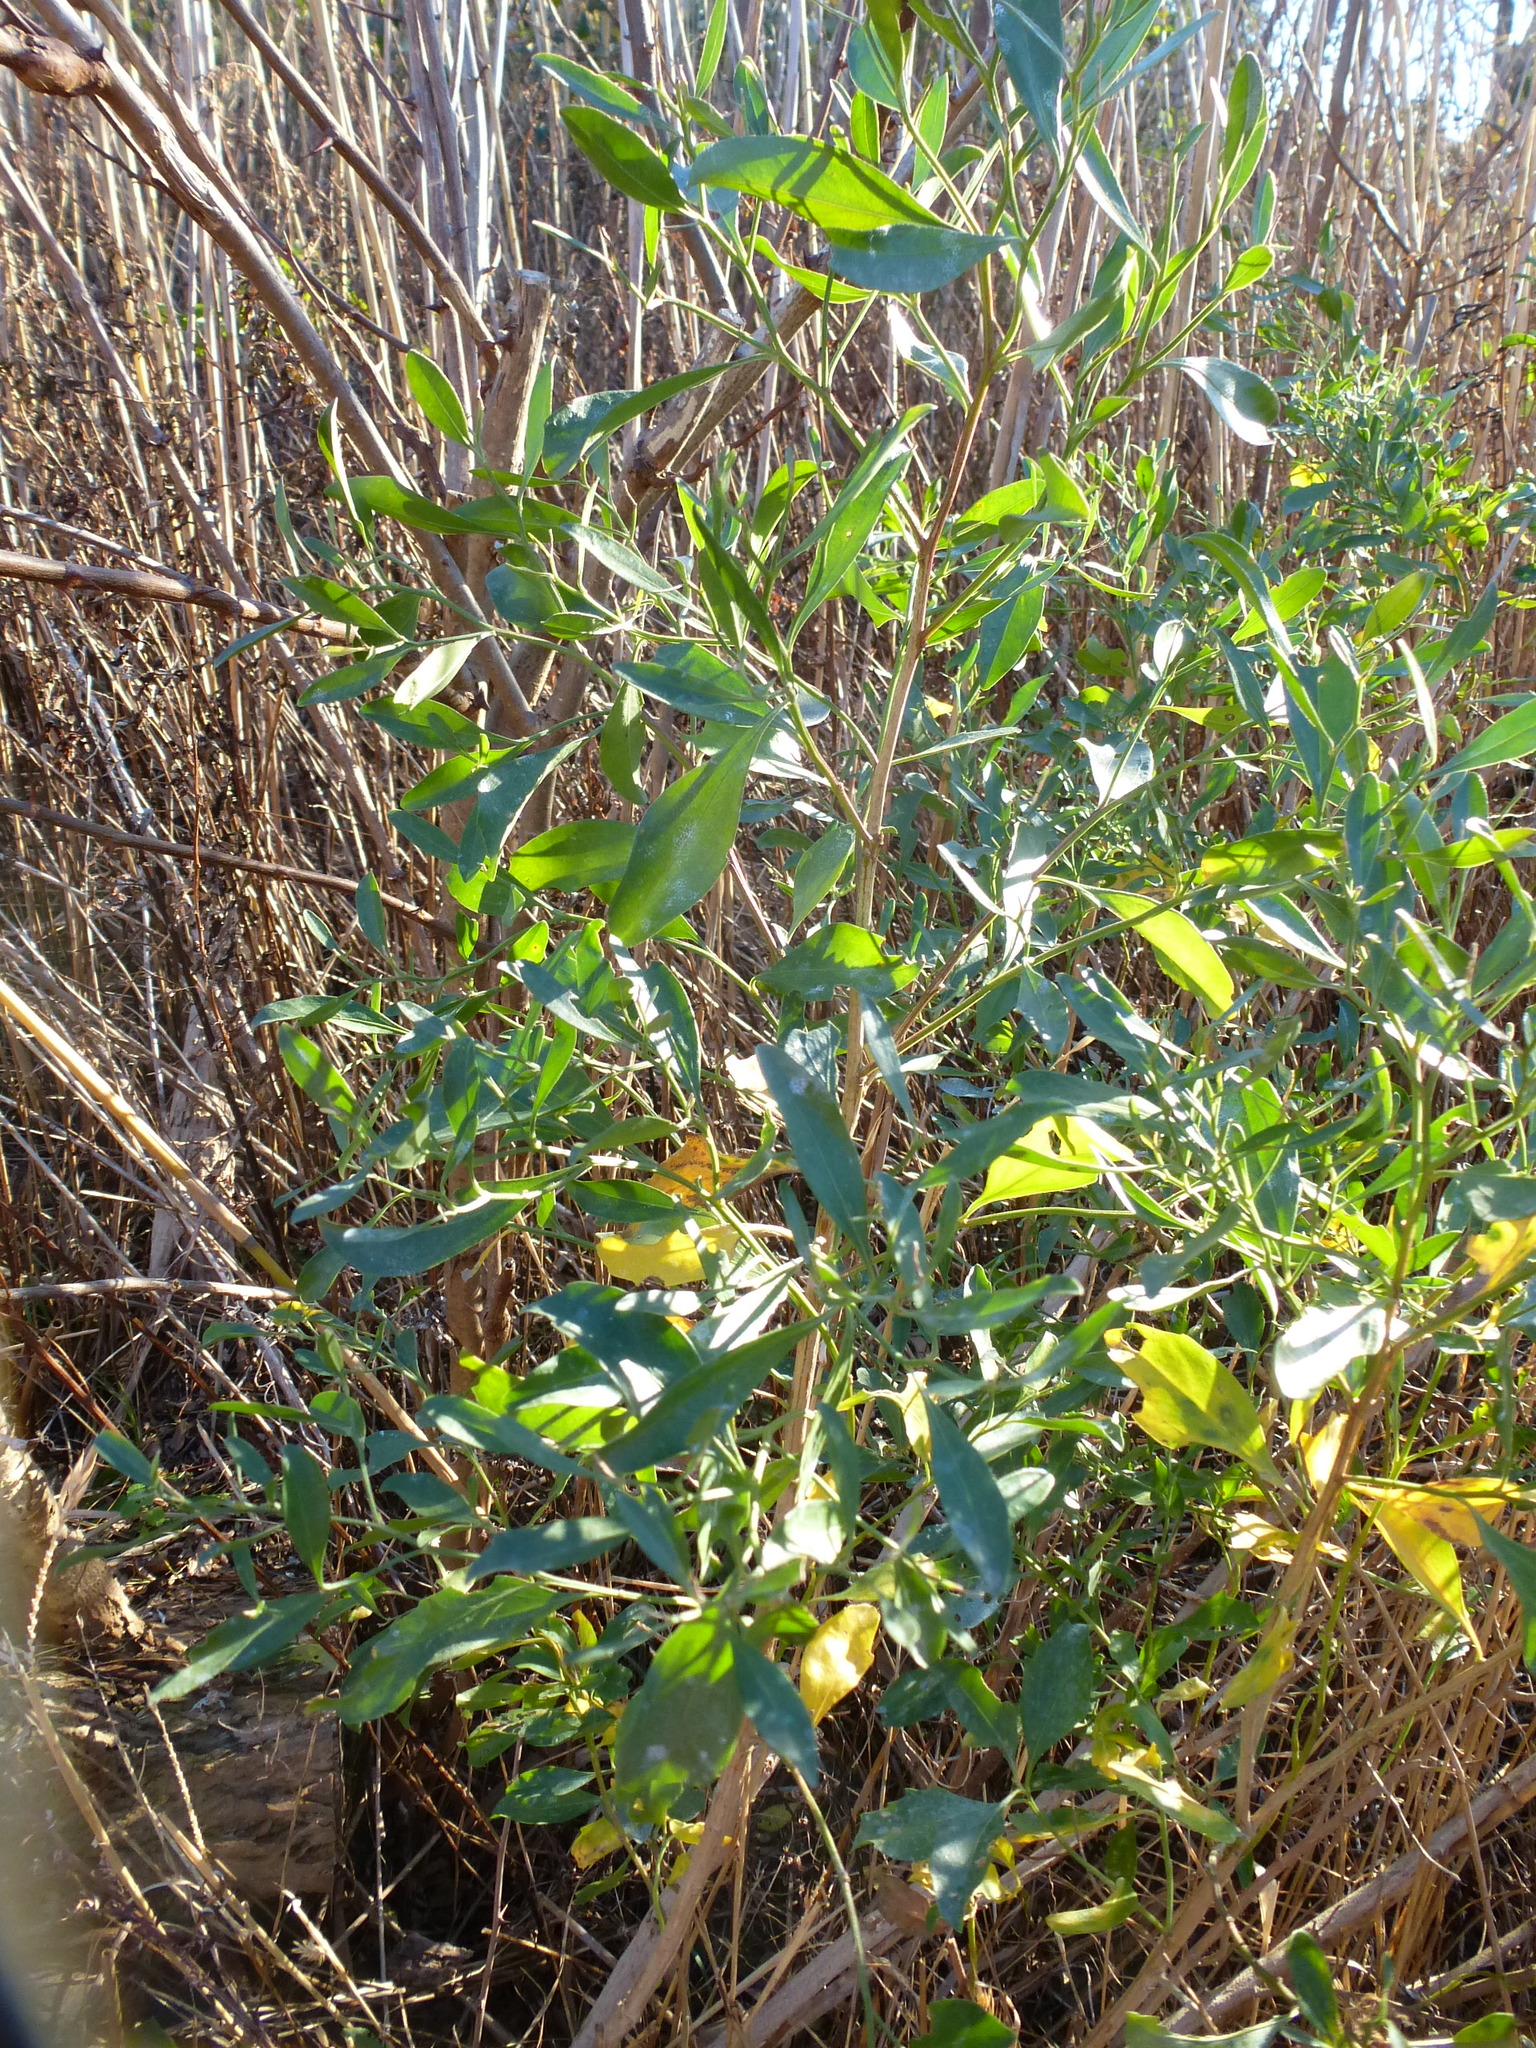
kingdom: Plantae
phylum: Tracheophyta
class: Magnoliopsida
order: Asterales
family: Asteraceae
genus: Baccharis
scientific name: Baccharis halimifolia
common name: Eastern baccharis
